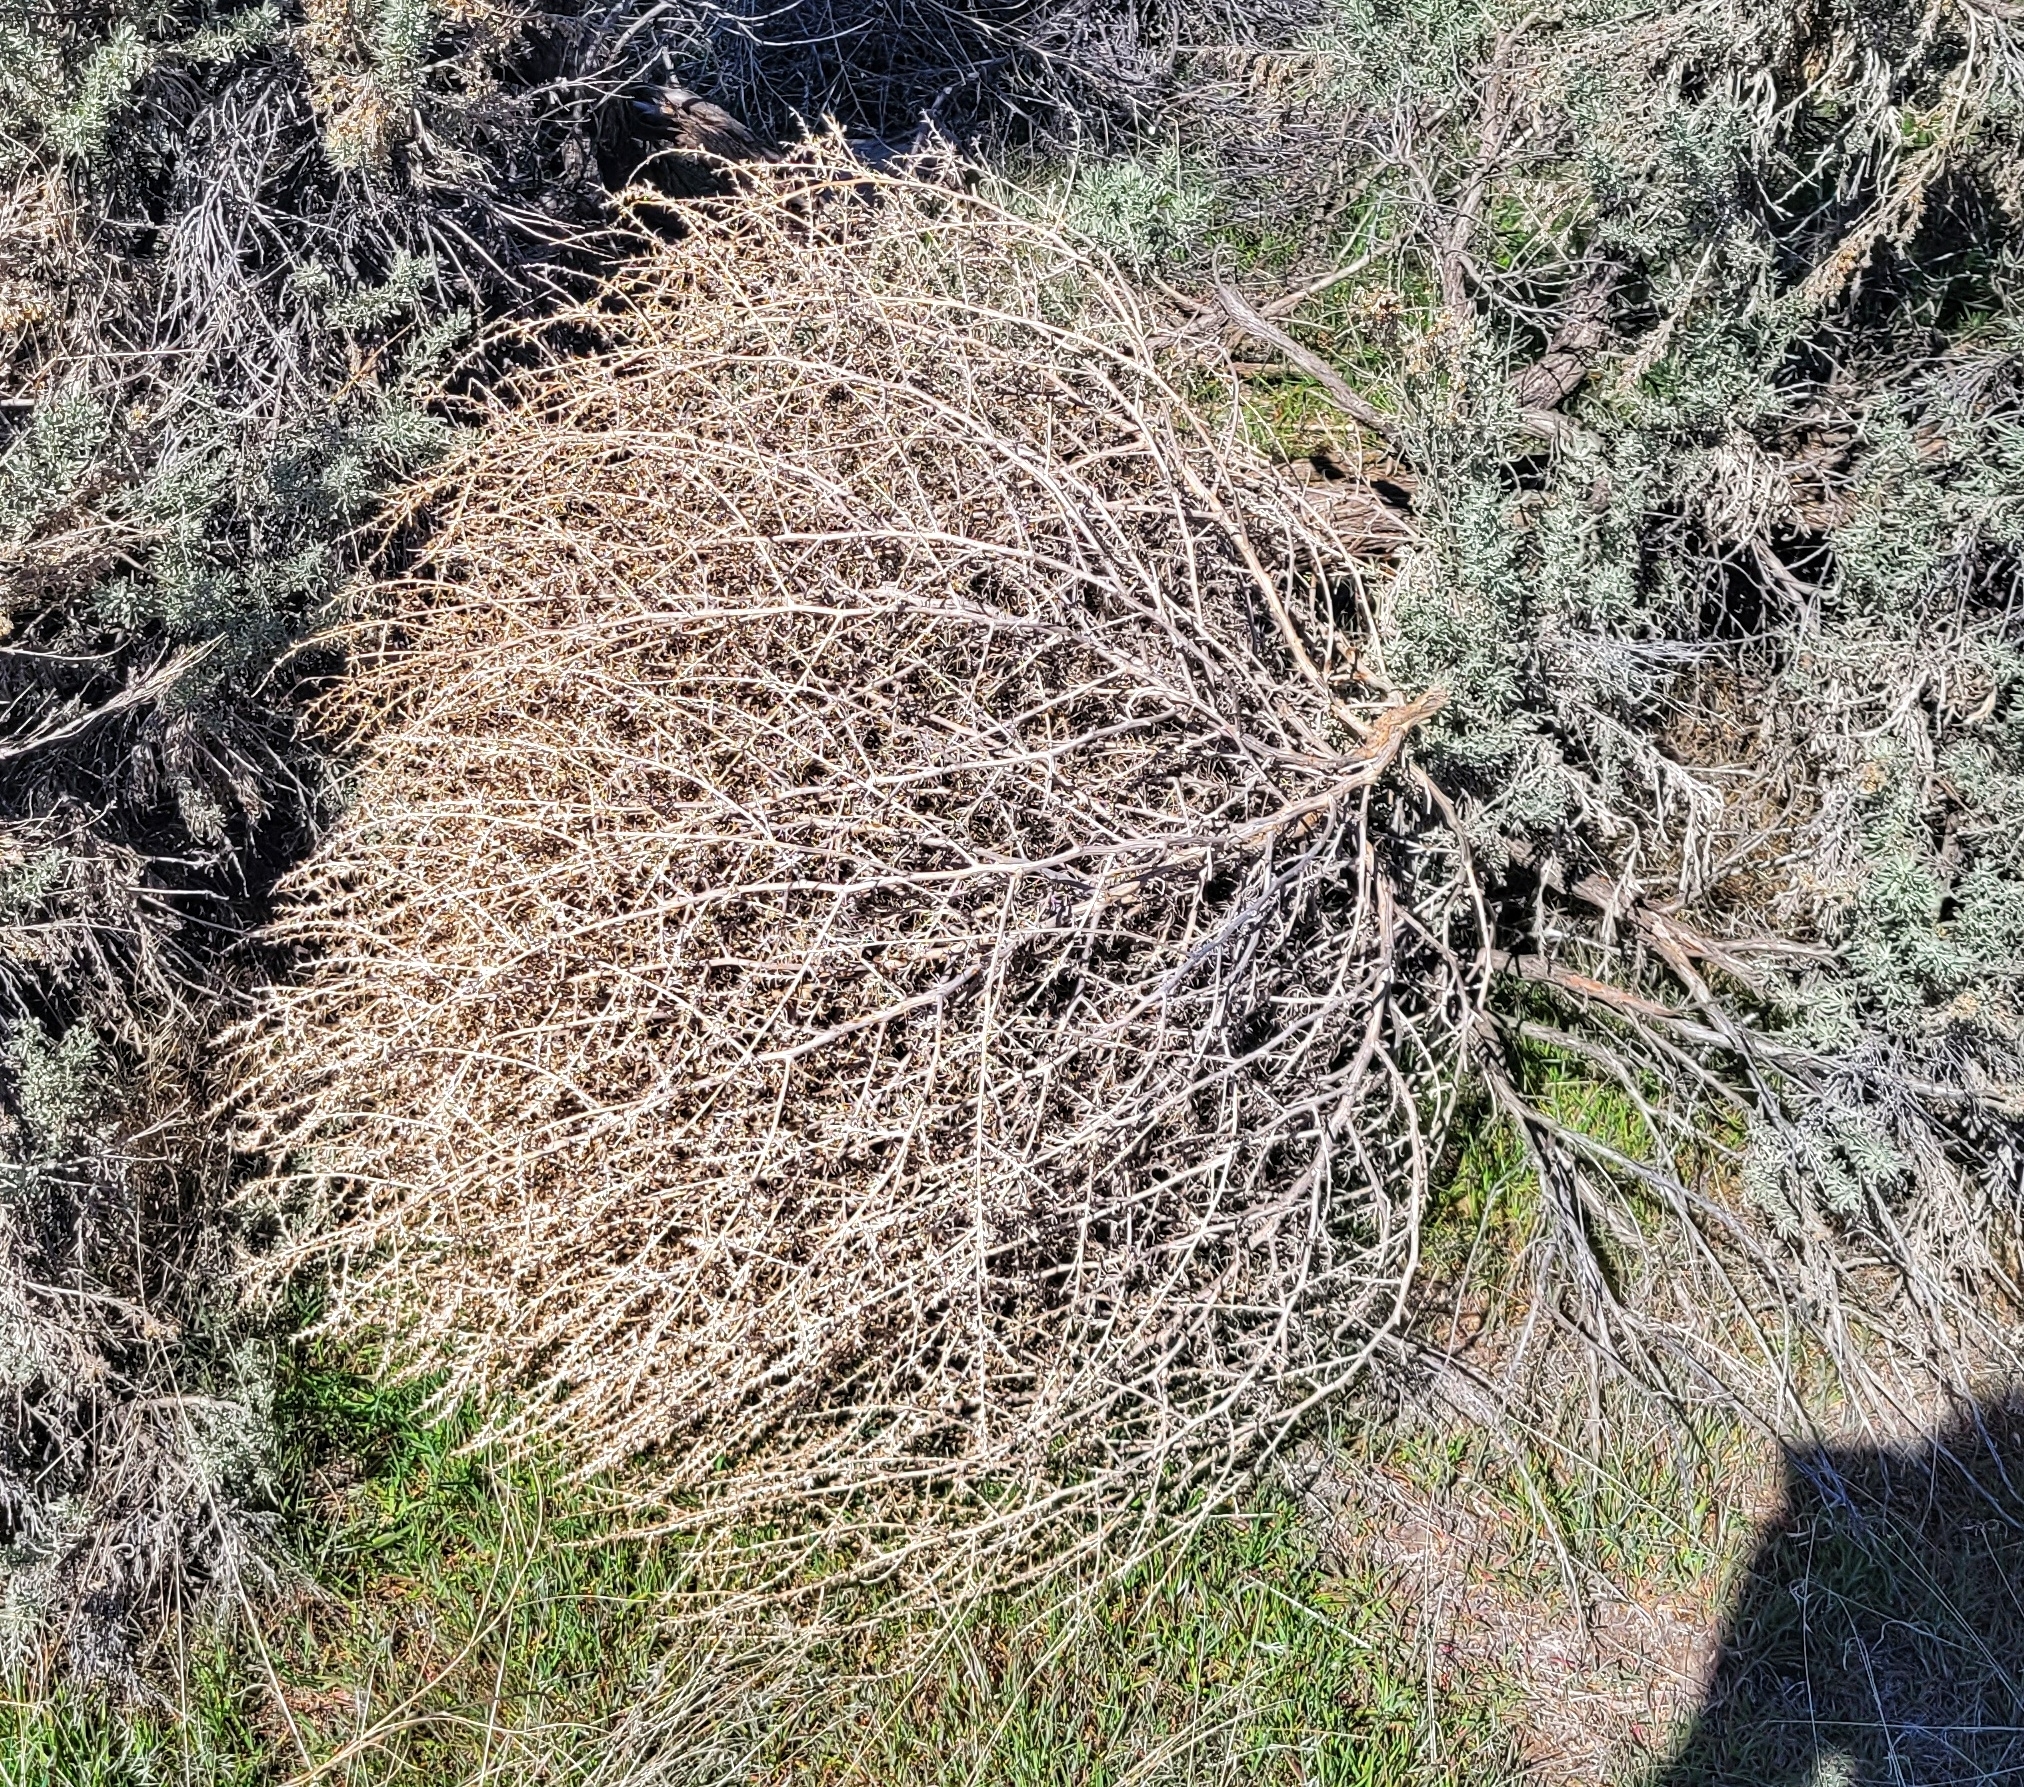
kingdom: Plantae
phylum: Tracheophyta
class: Magnoliopsida
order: Caryophyllales
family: Amaranthaceae
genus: Salsola
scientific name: Salsola tragus
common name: Prickly russian thistle
